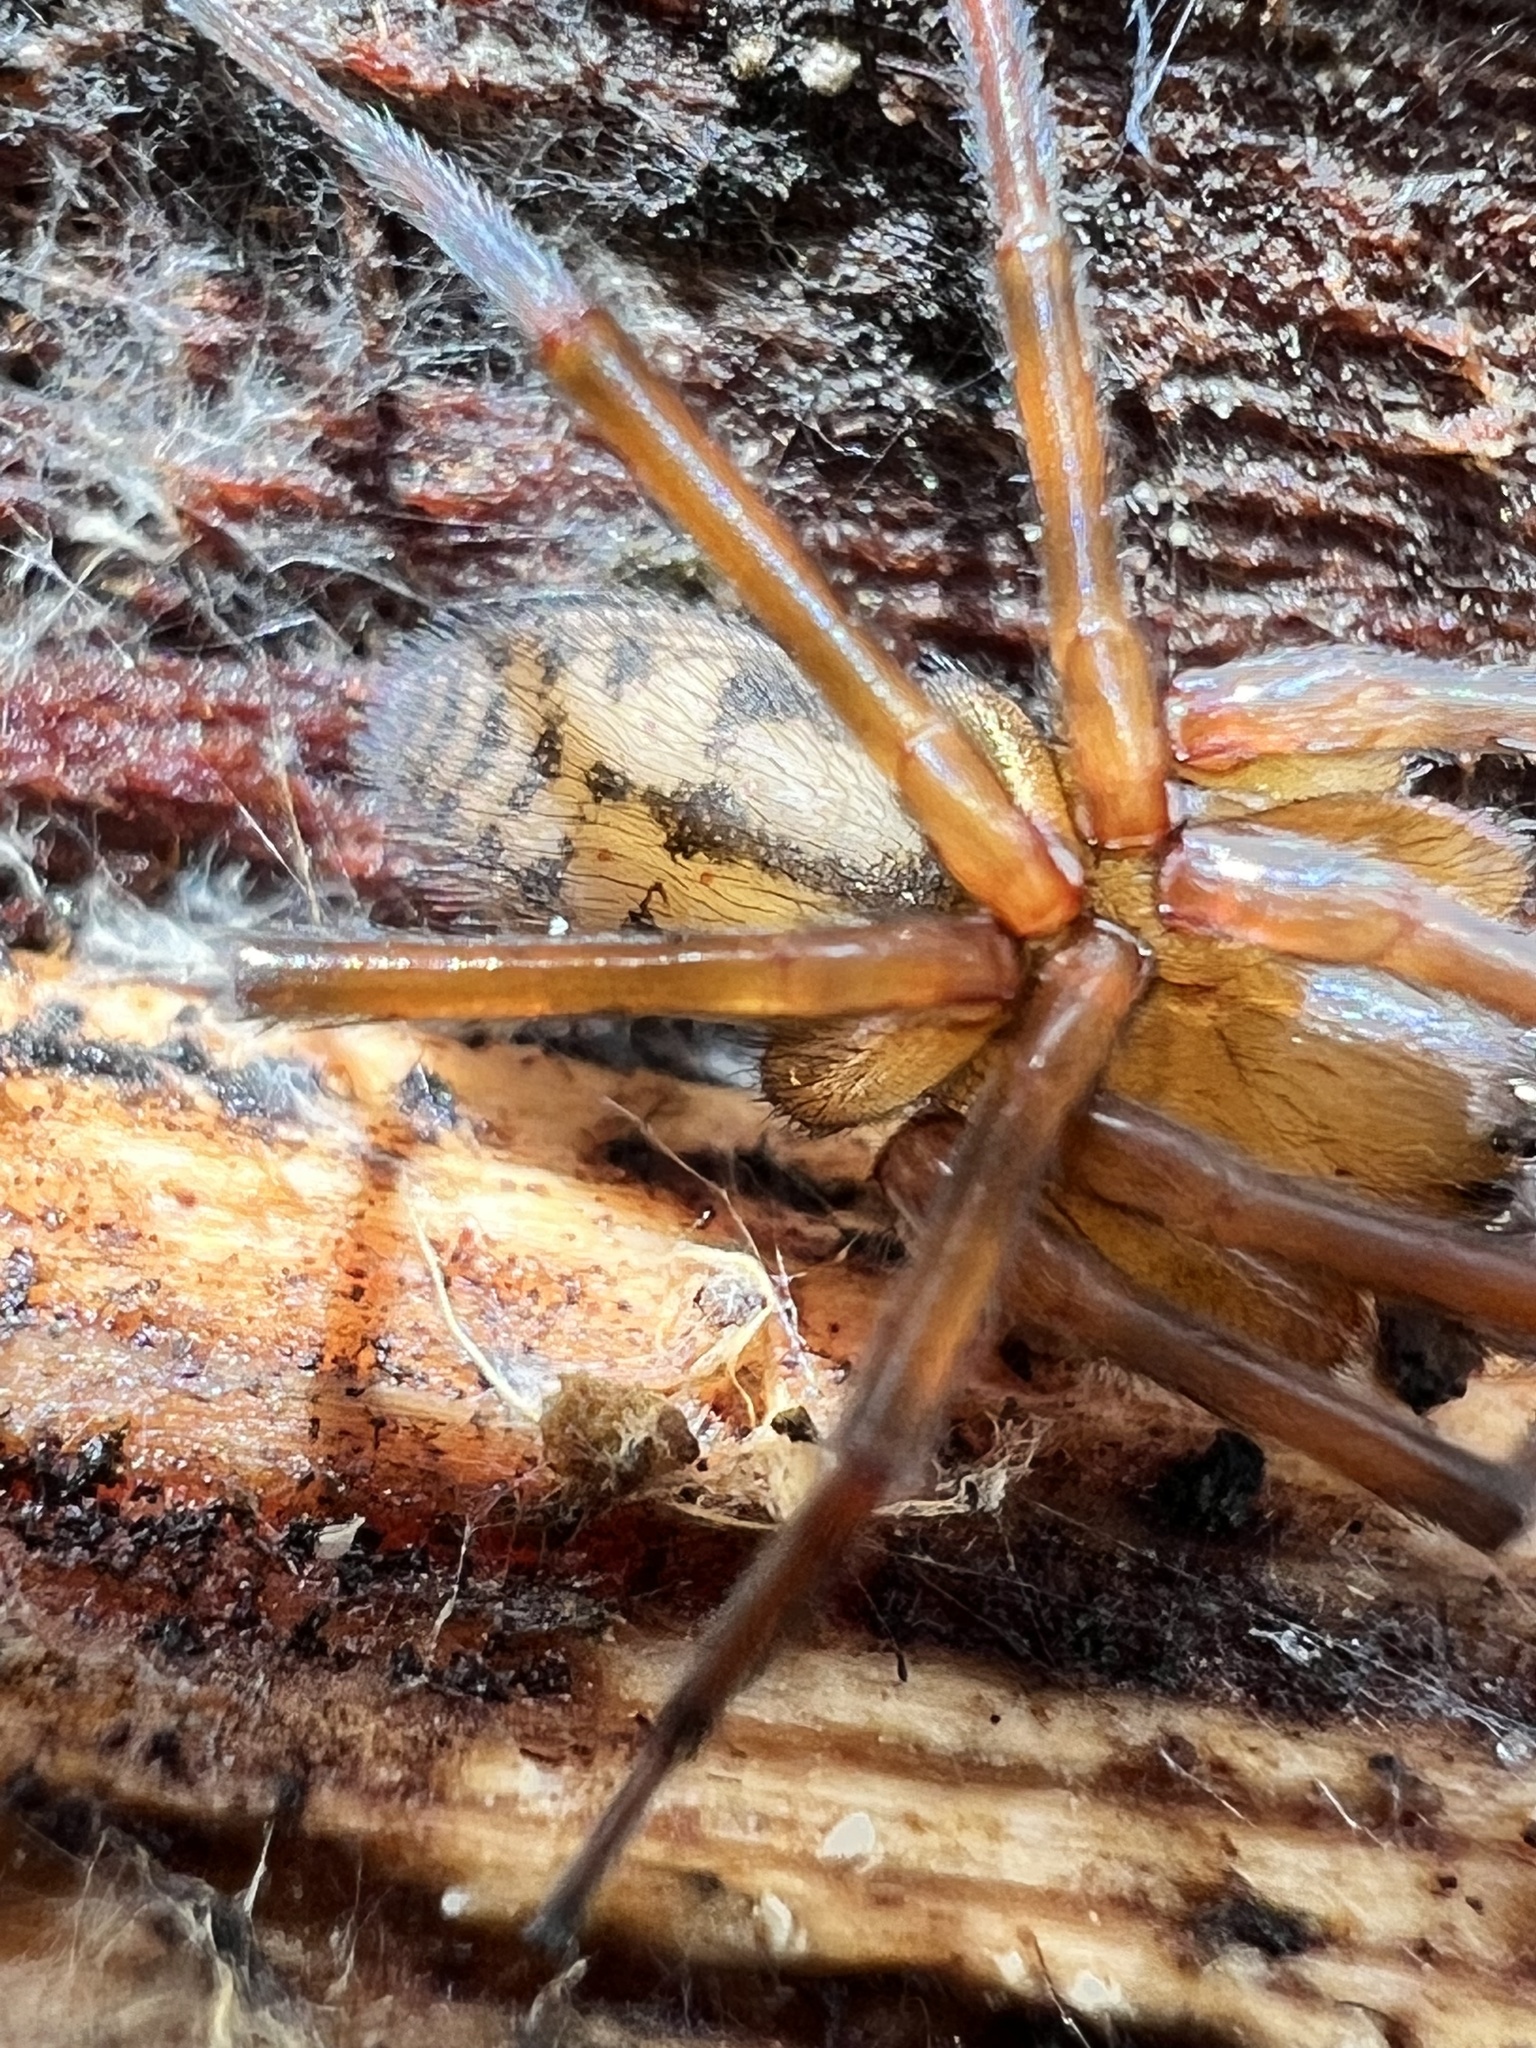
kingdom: Animalia
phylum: Arthropoda
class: Arachnida
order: Araneae
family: Amaurobiidae
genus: Callobius
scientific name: Callobius pictus
